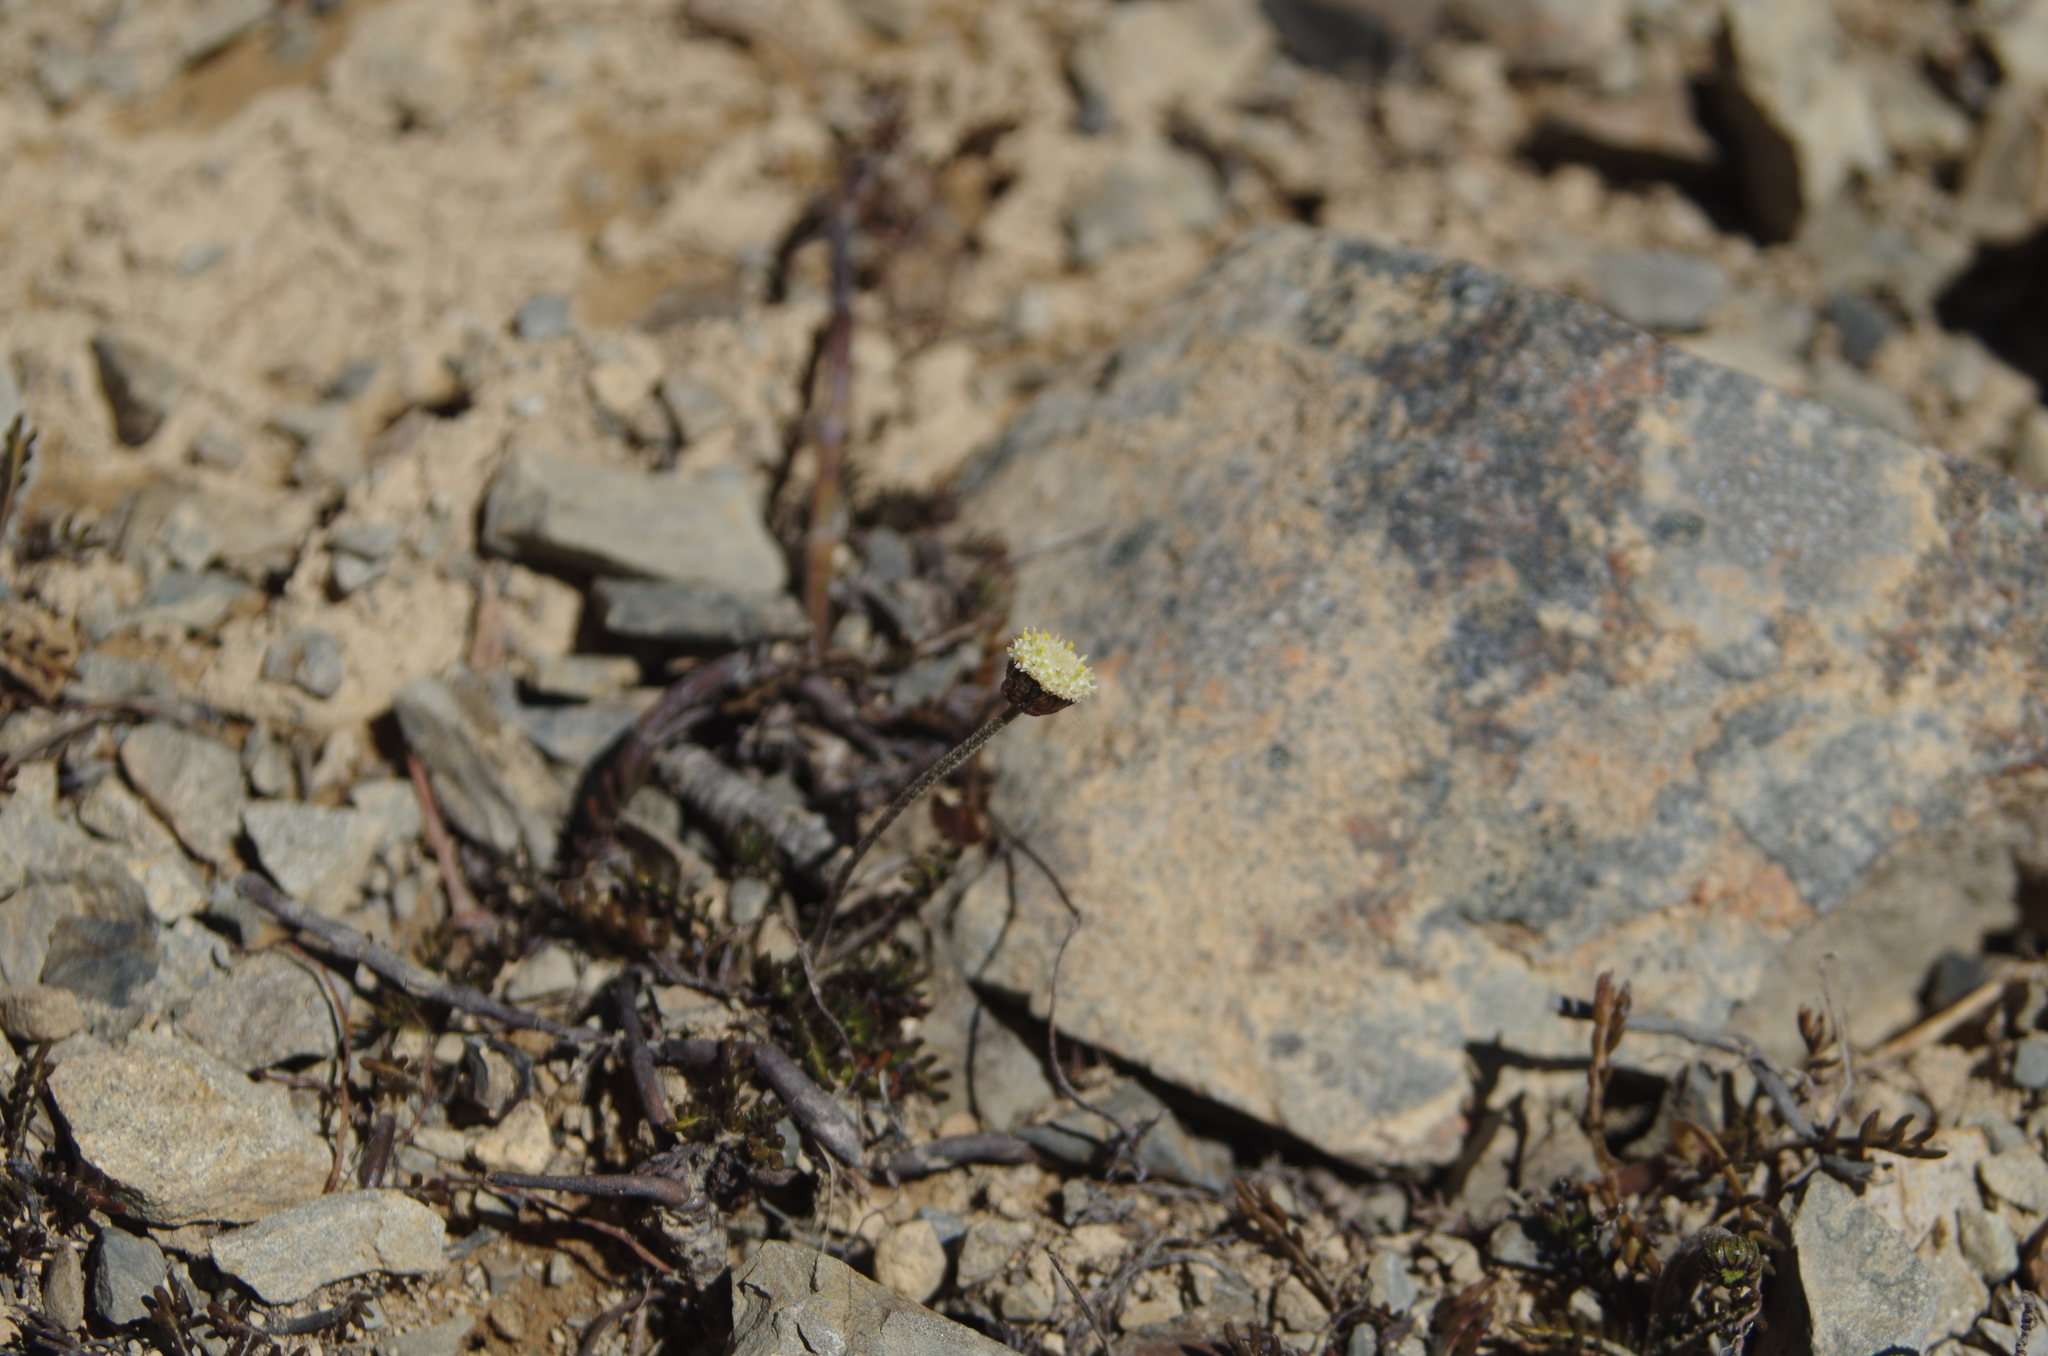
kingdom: Plantae
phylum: Tracheophyta
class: Magnoliopsida
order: Asterales
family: Asteraceae
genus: Leptinella
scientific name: Leptinella pectinata
